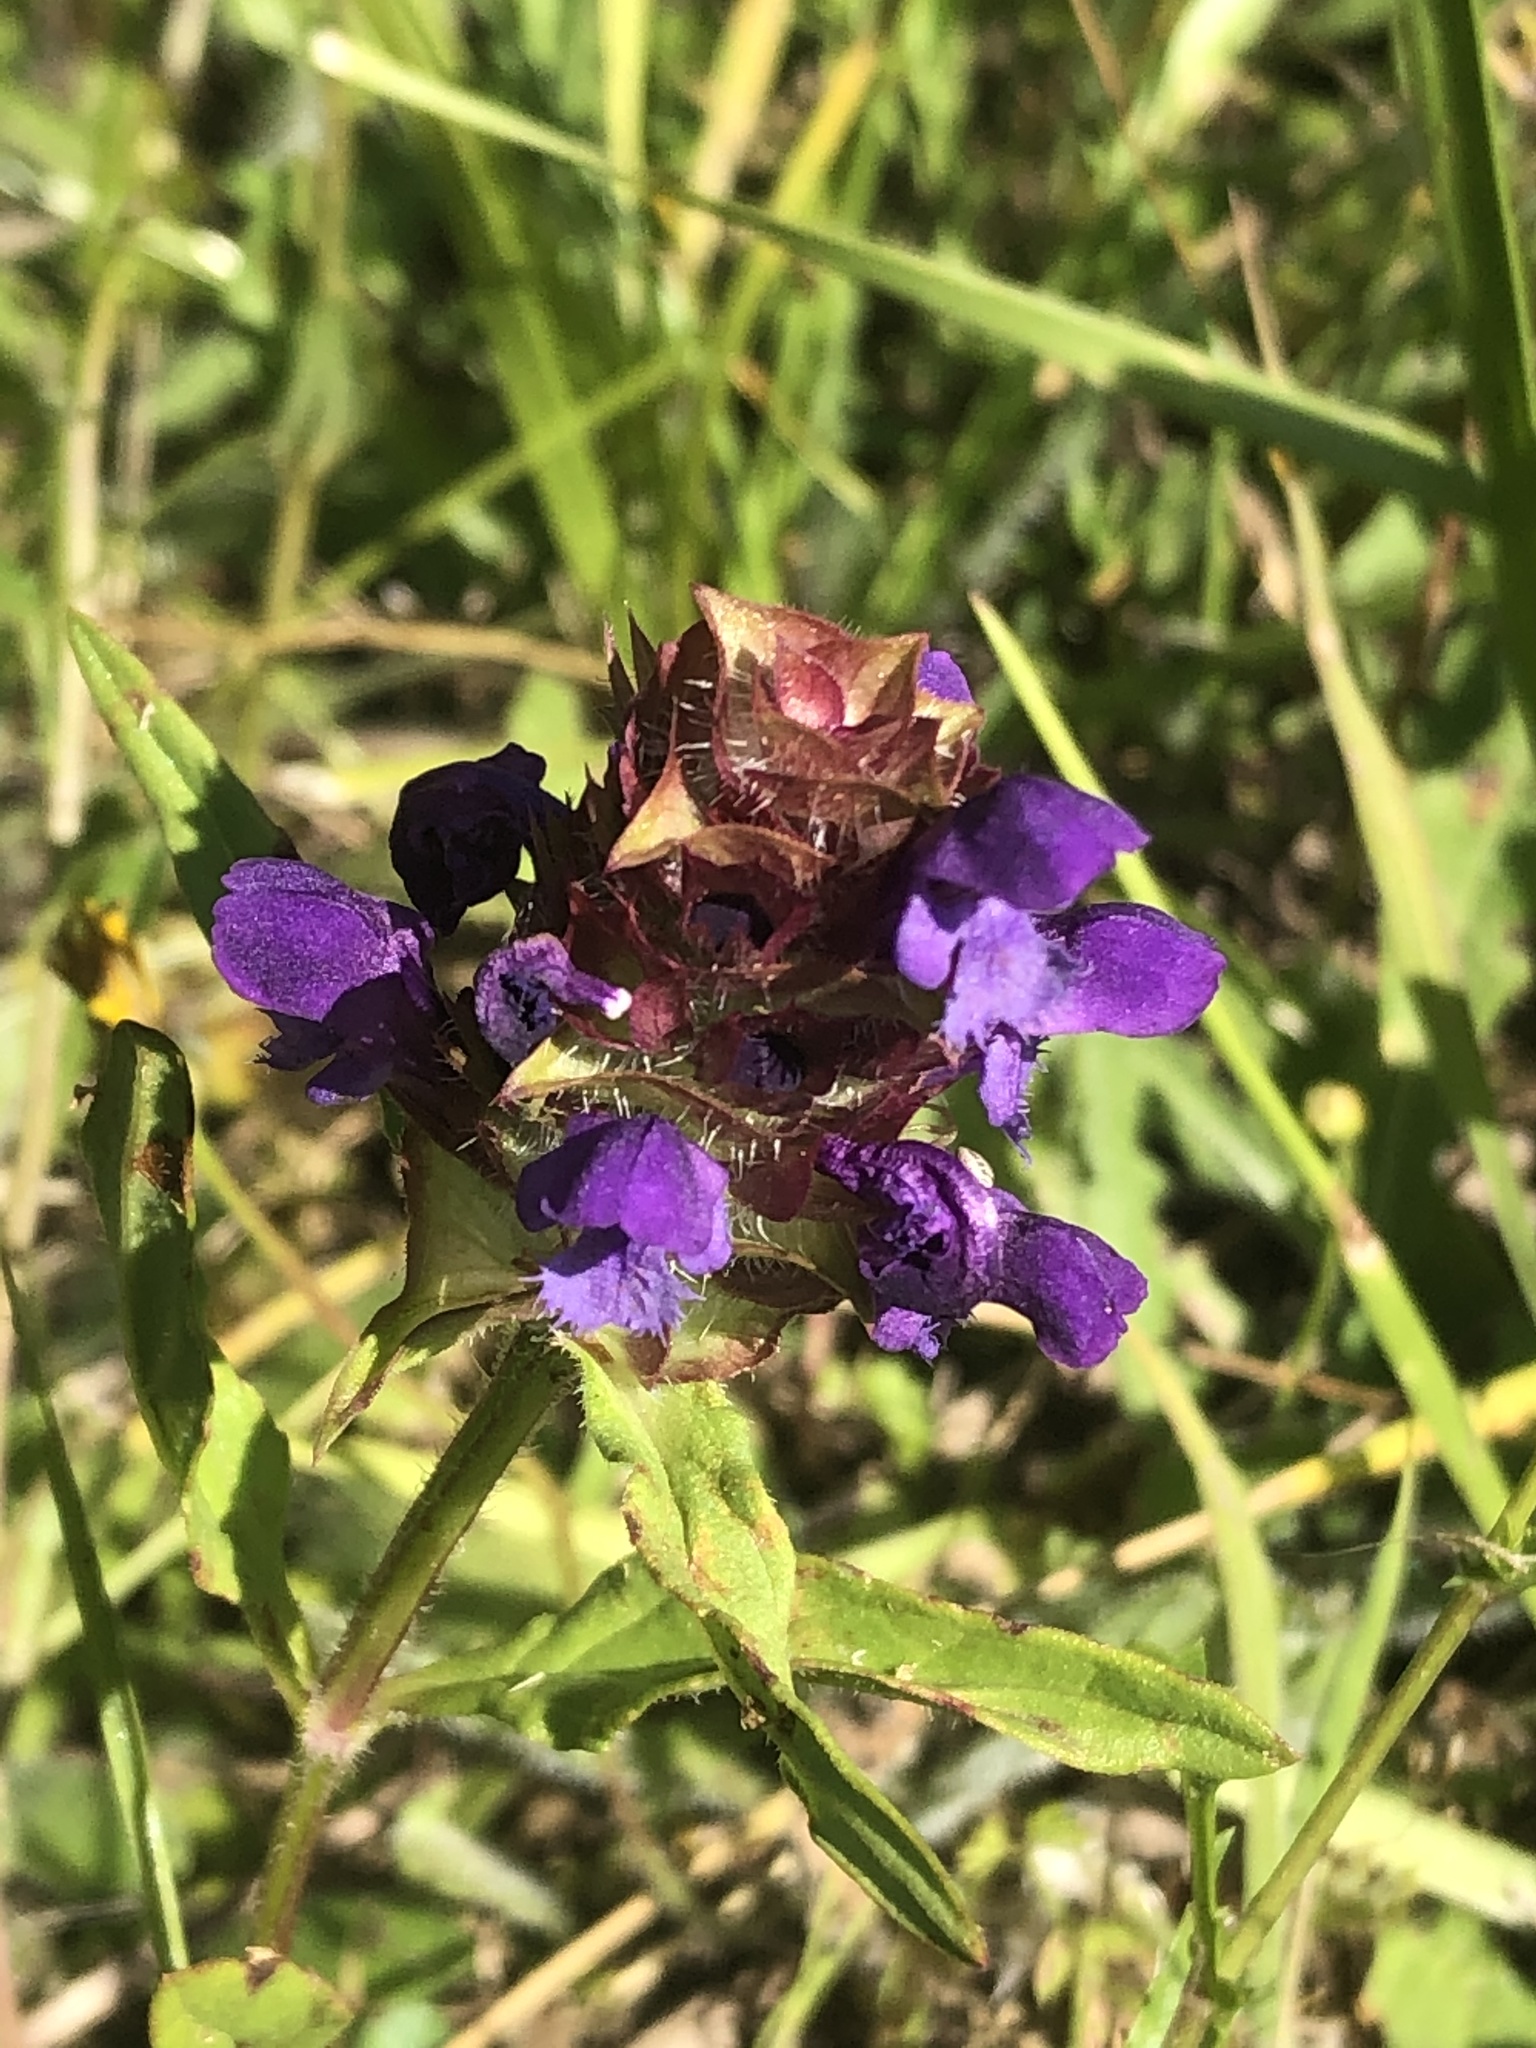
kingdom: Plantae
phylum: Tracheophyta
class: Magnoliopsida
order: Lamiales
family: Lamiaceae
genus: Prunella
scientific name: Prunella vulgaris
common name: Heal-all
